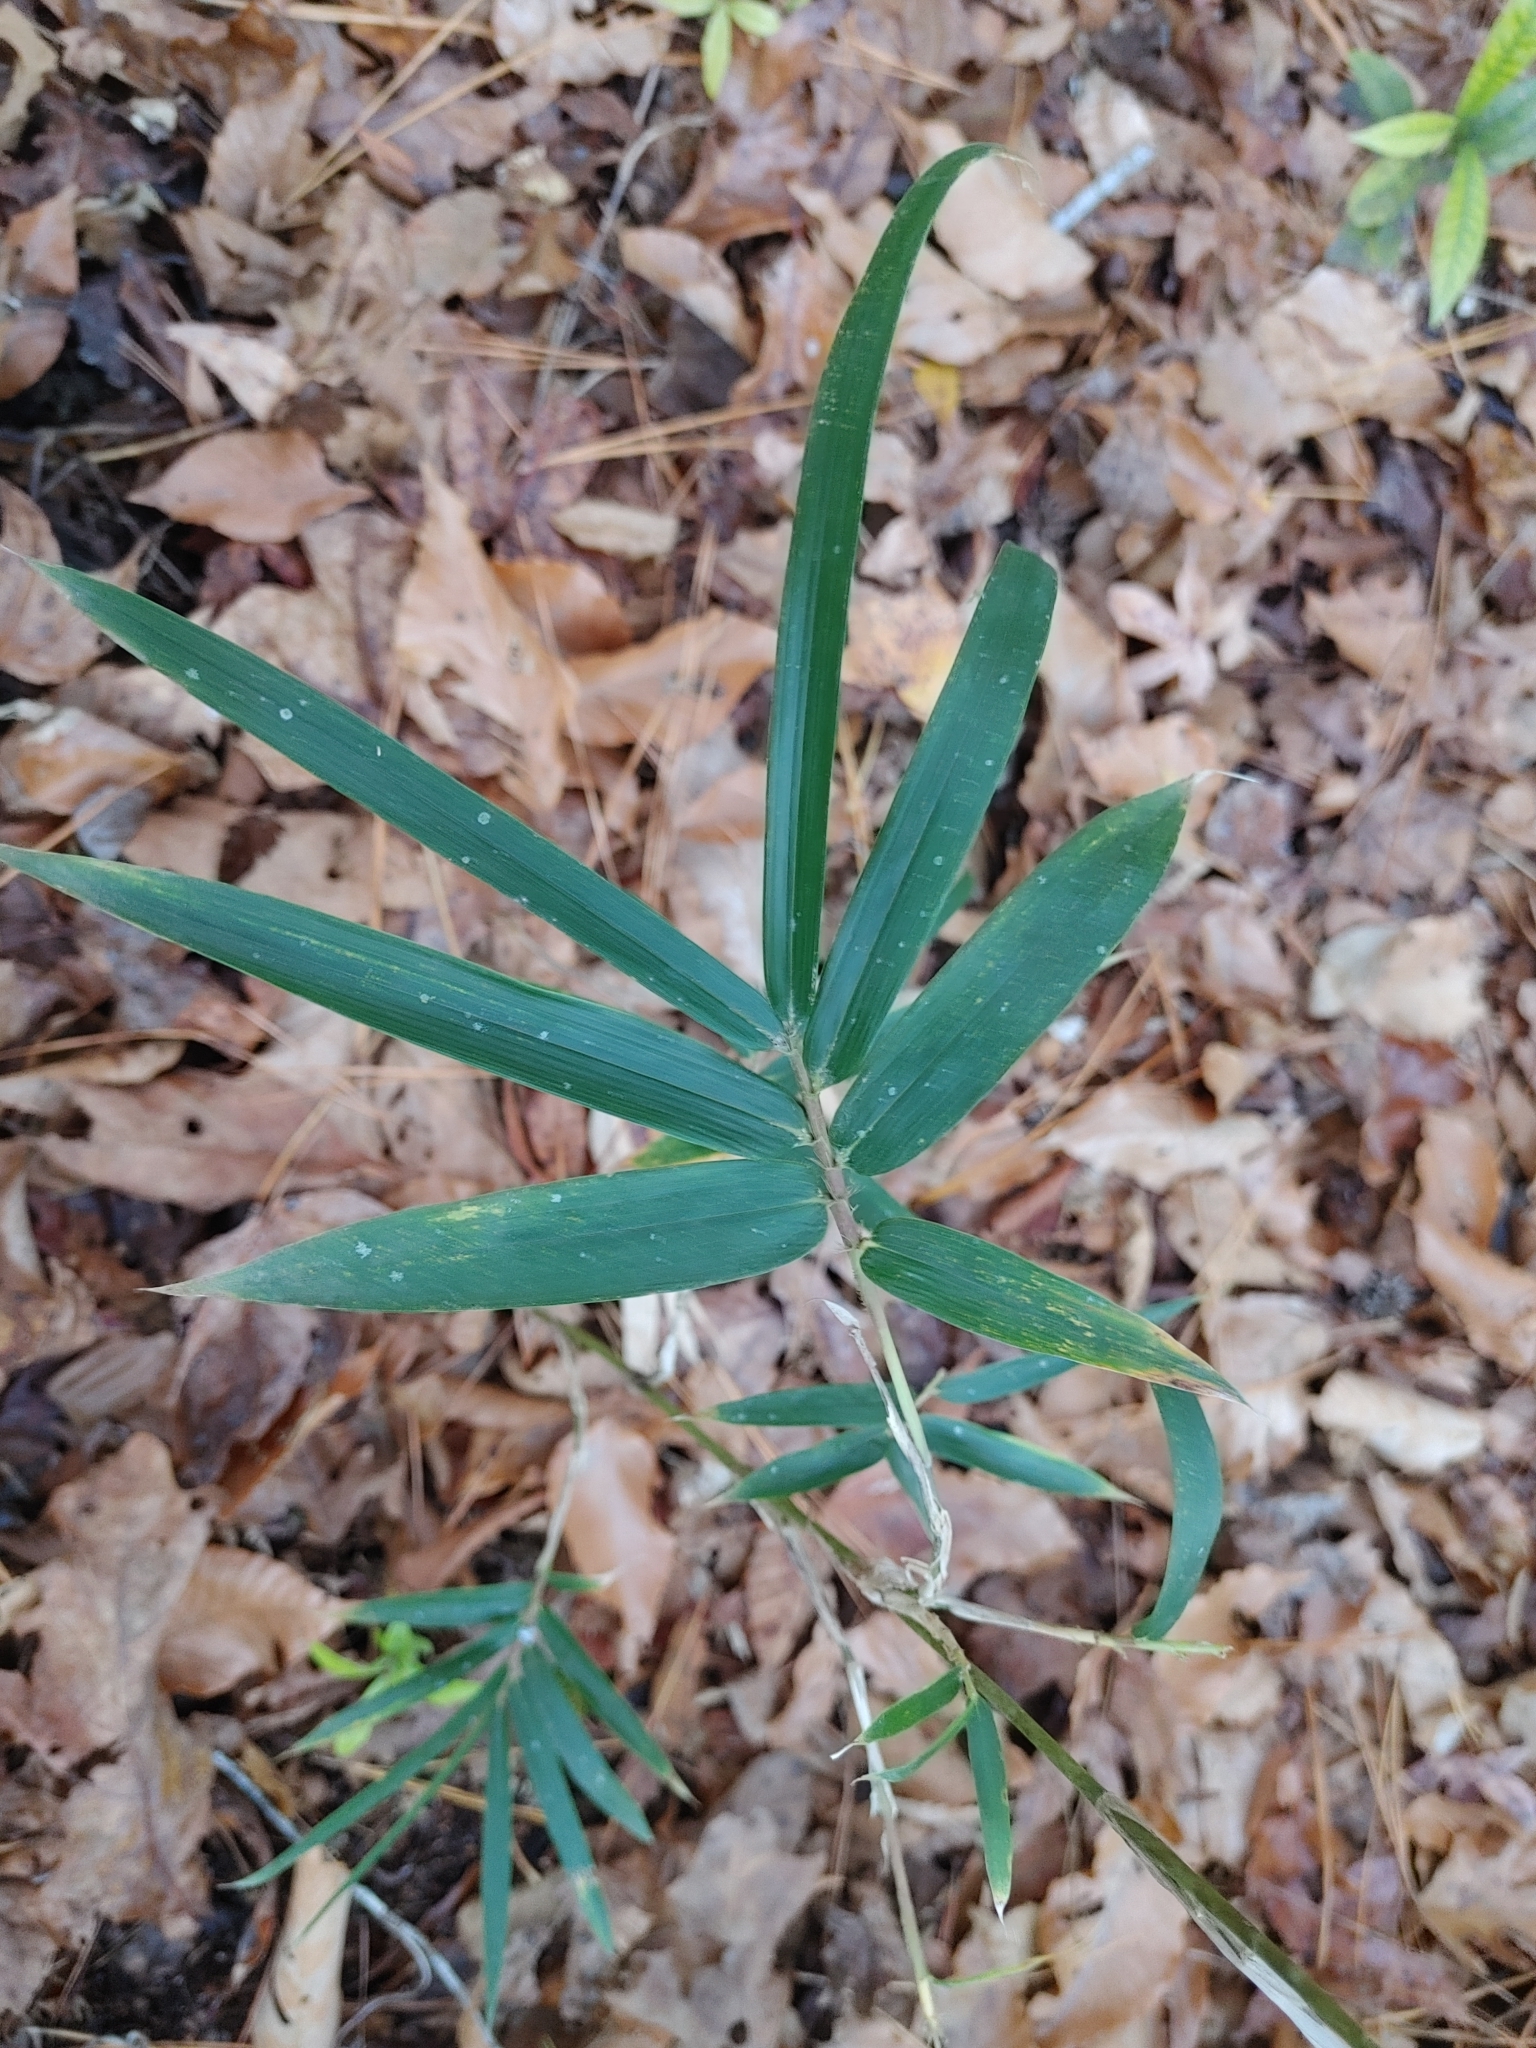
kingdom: Plantae
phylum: Tracheophyta
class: Liliopsida
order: Poales
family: Poaceae
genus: Arundinaria
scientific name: Arundinaria gigantea
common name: Giant cane
